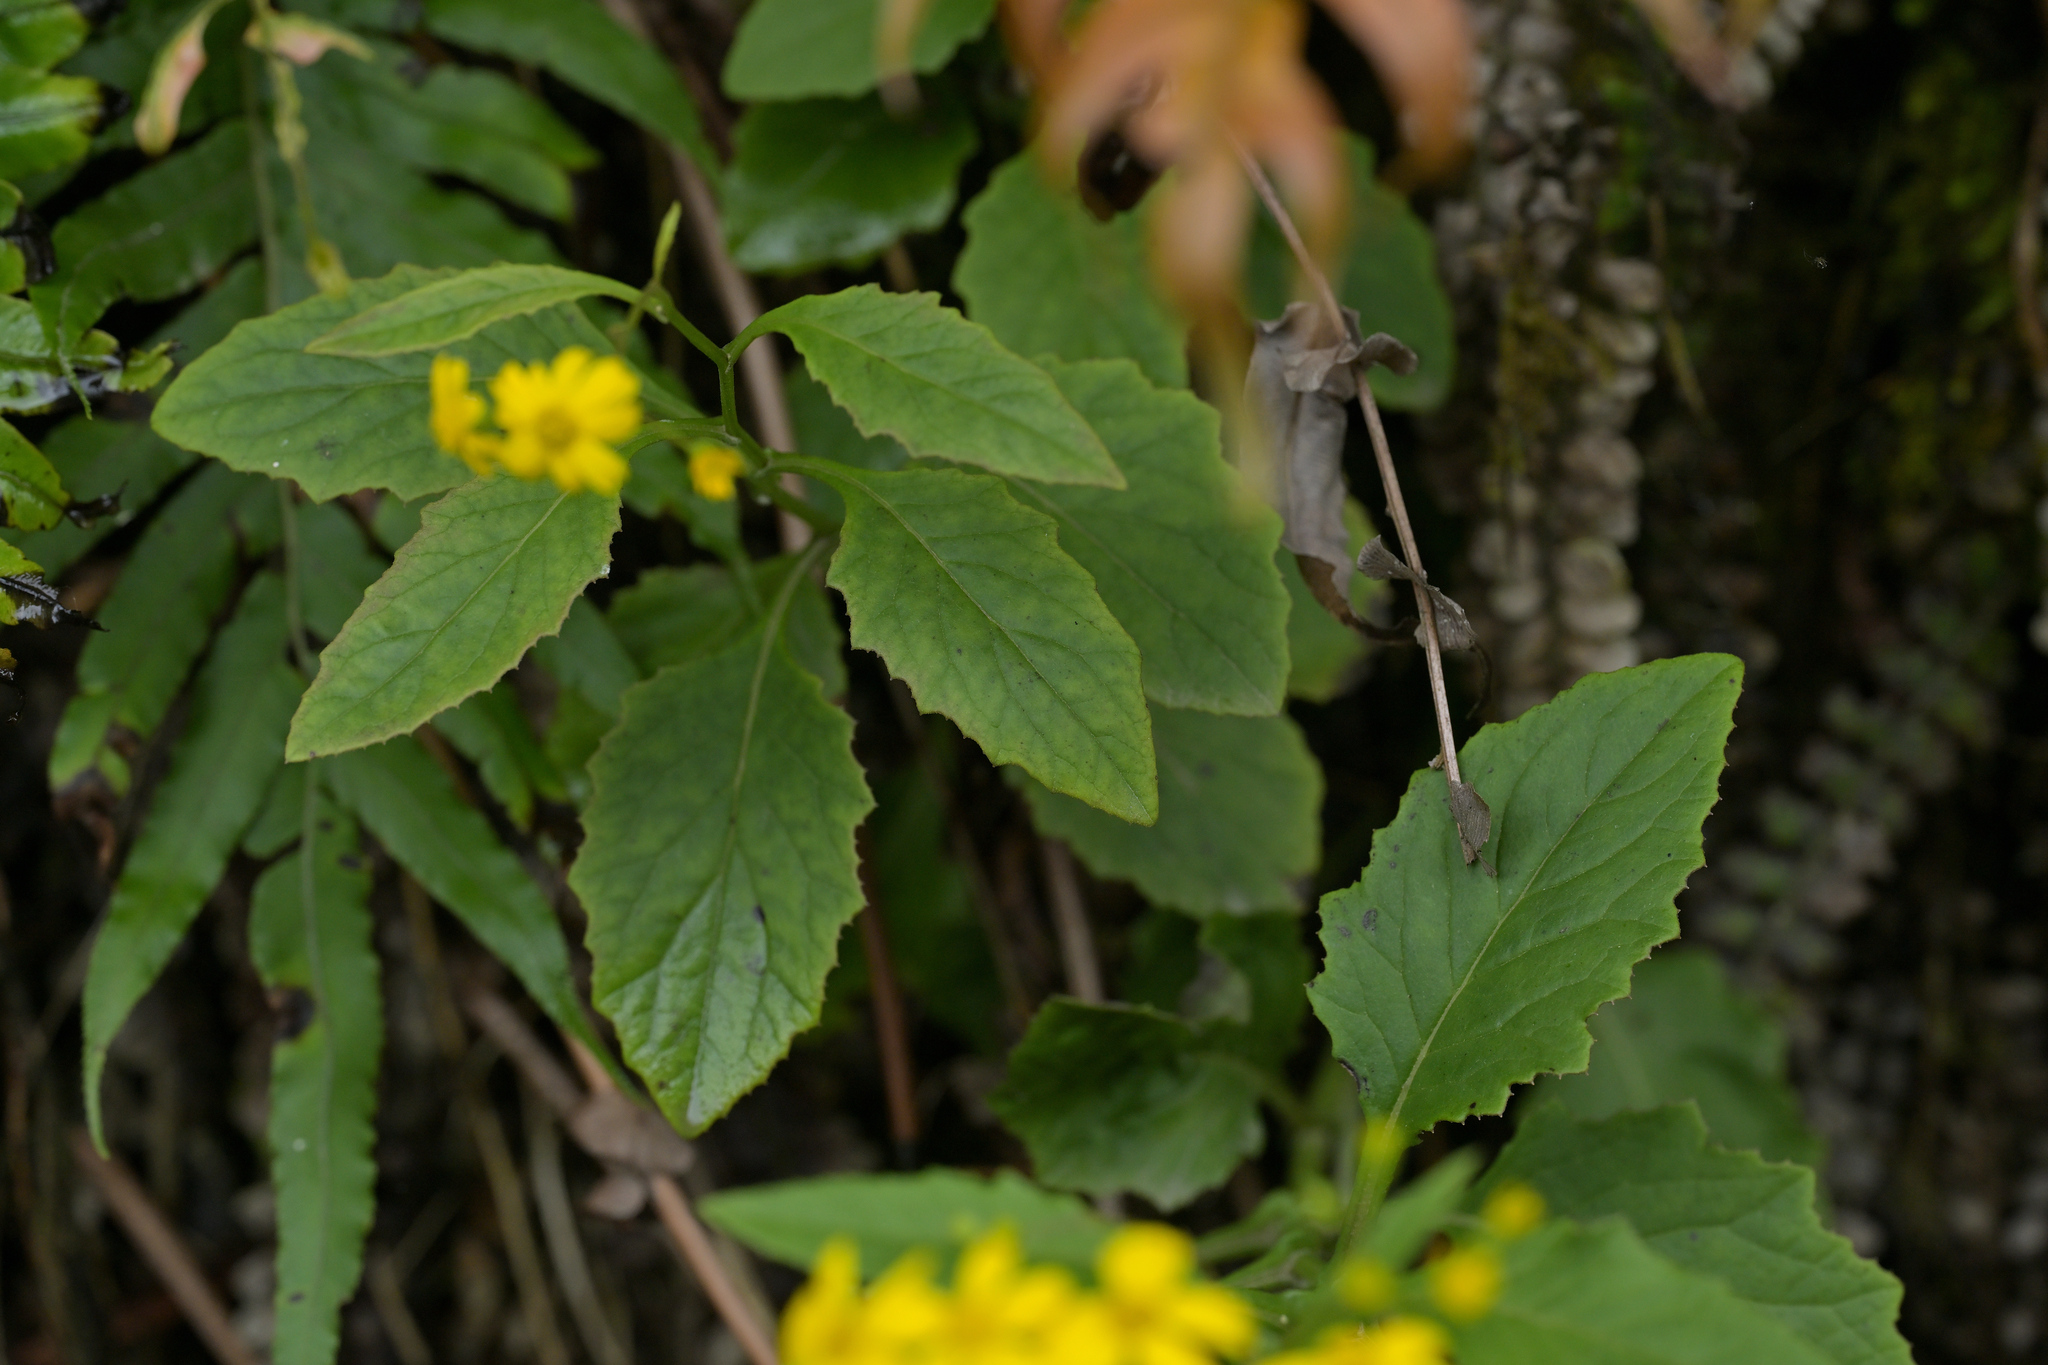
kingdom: Plantae
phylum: Tracheophyta
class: Magnoliopsida
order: Asterales
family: Asteraceae
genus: Senecio
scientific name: Senecio rufiglandulosus
